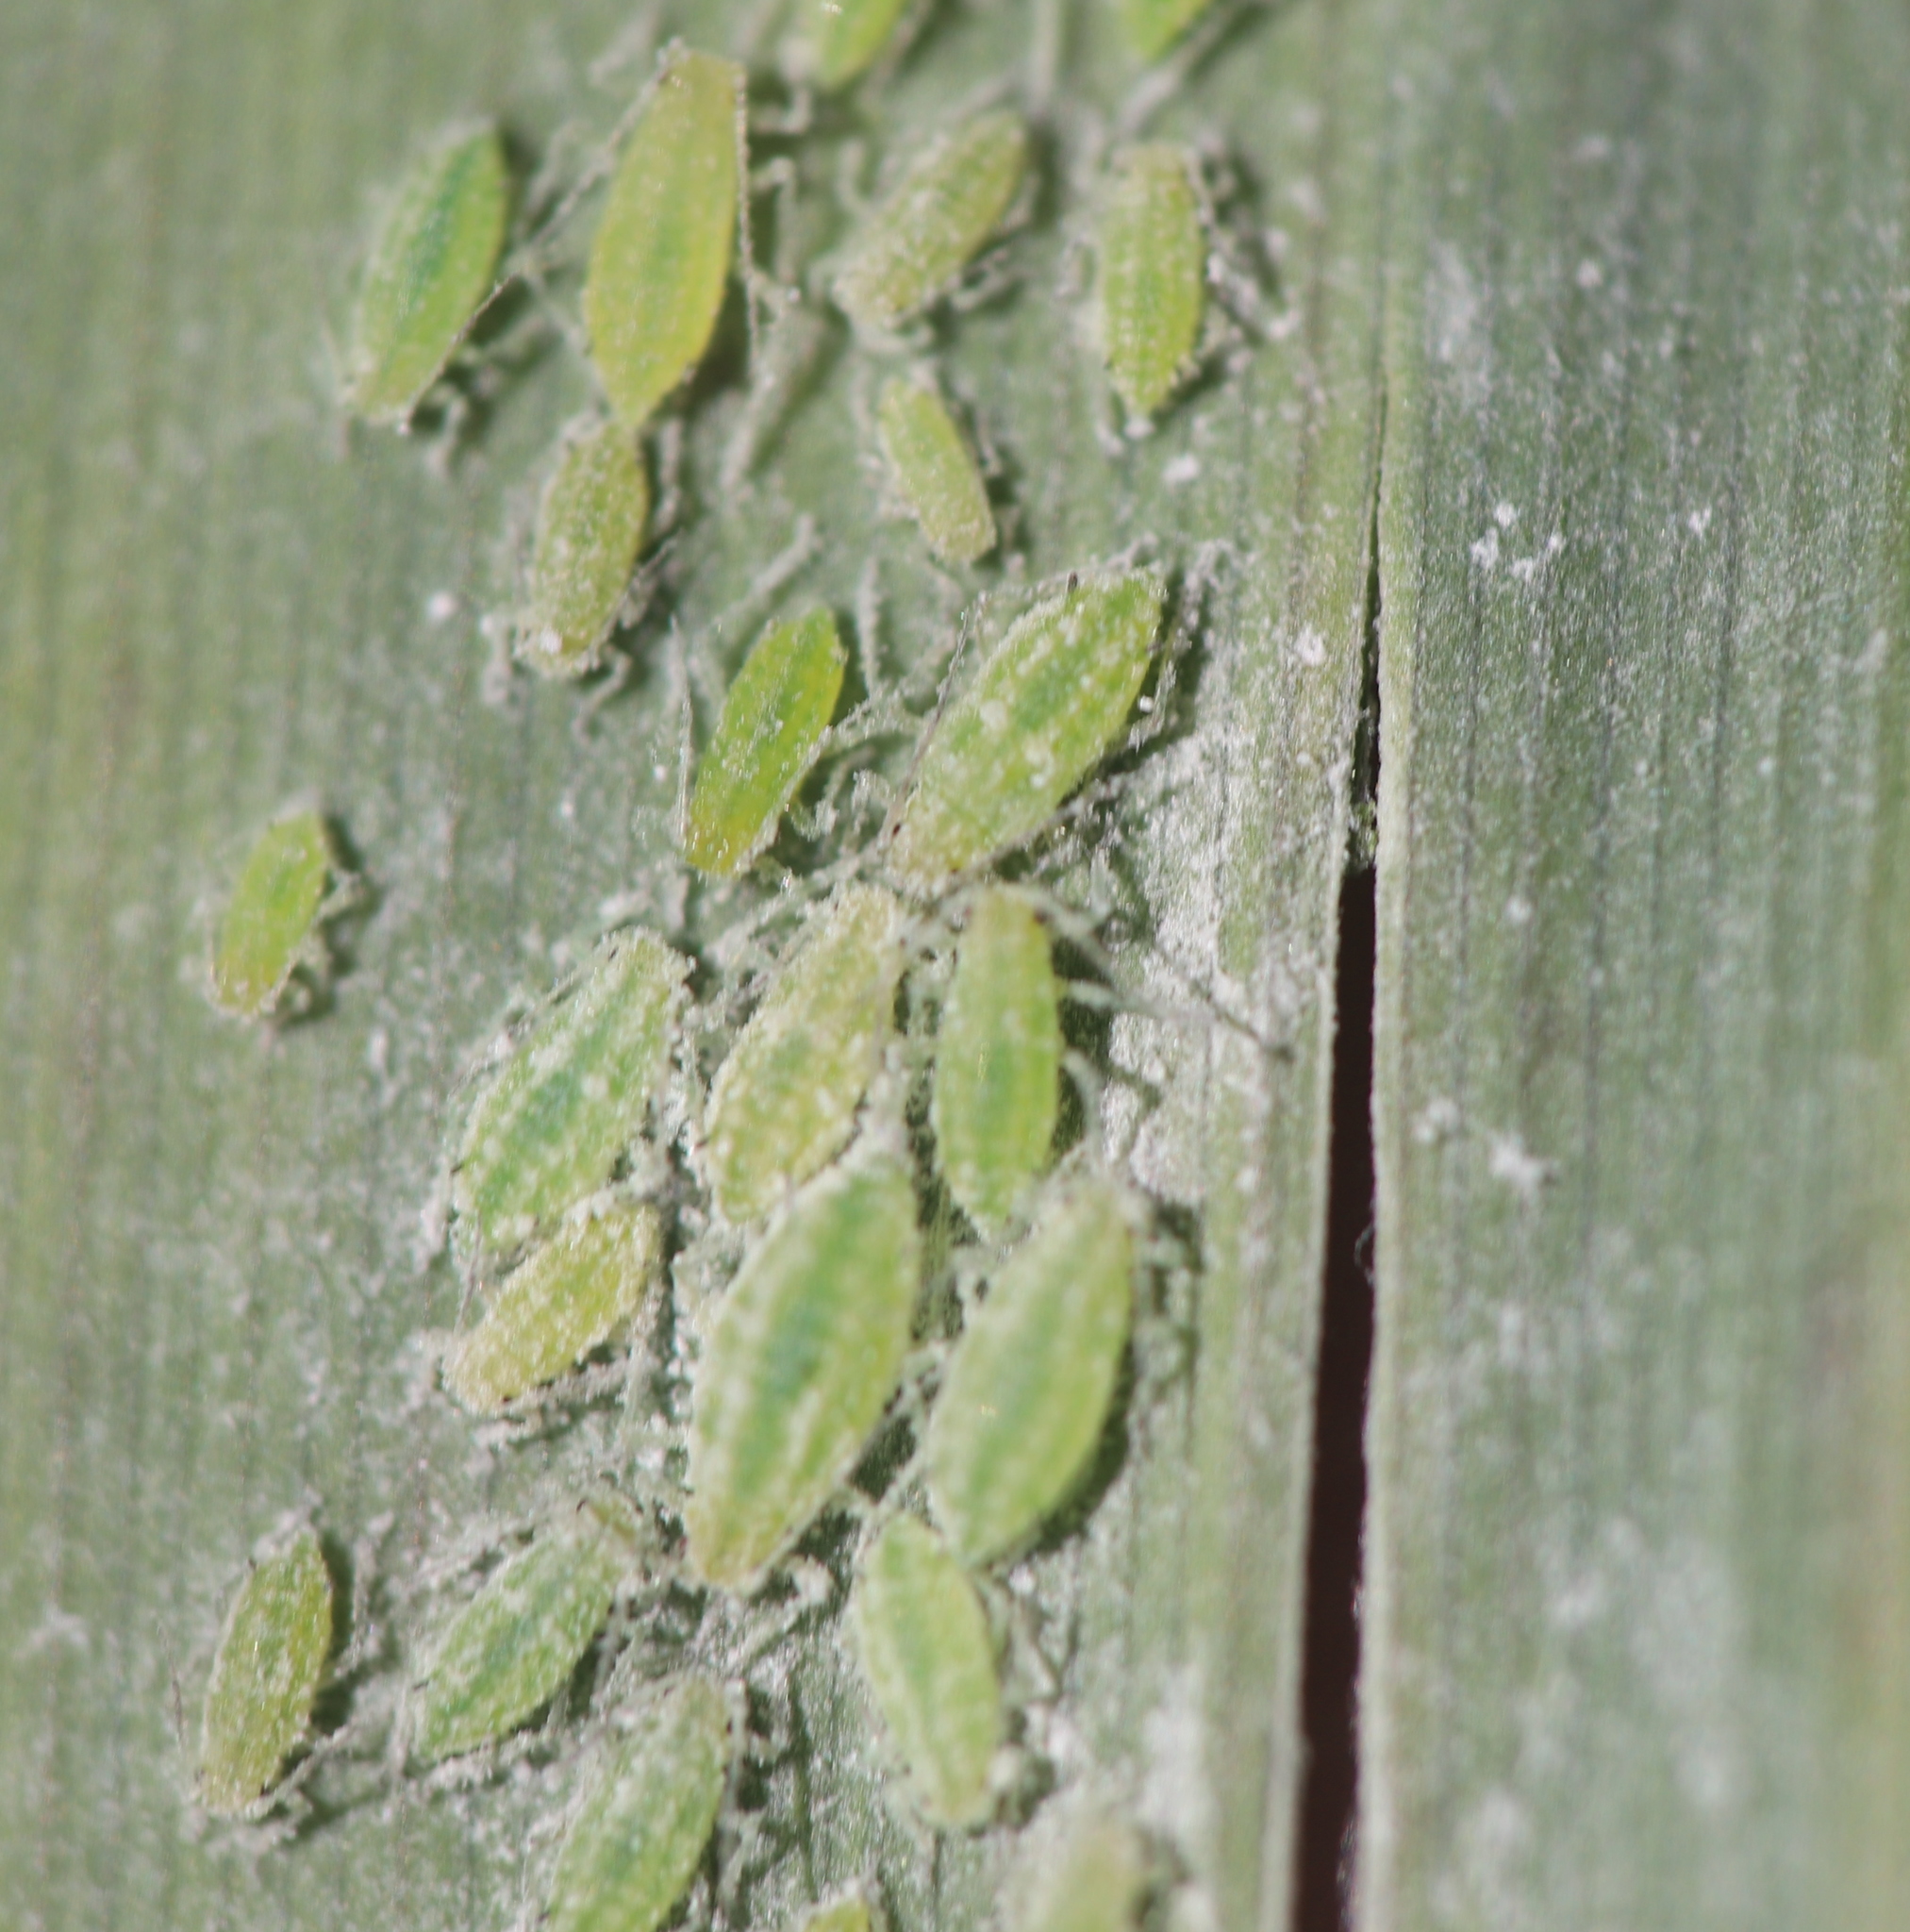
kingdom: Animalia
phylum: Arthropoda
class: Insecta
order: Hemiptera
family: Aphididae
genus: Hyalopterus
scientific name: Hyalopterus pruni
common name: Mealy plum aphid
